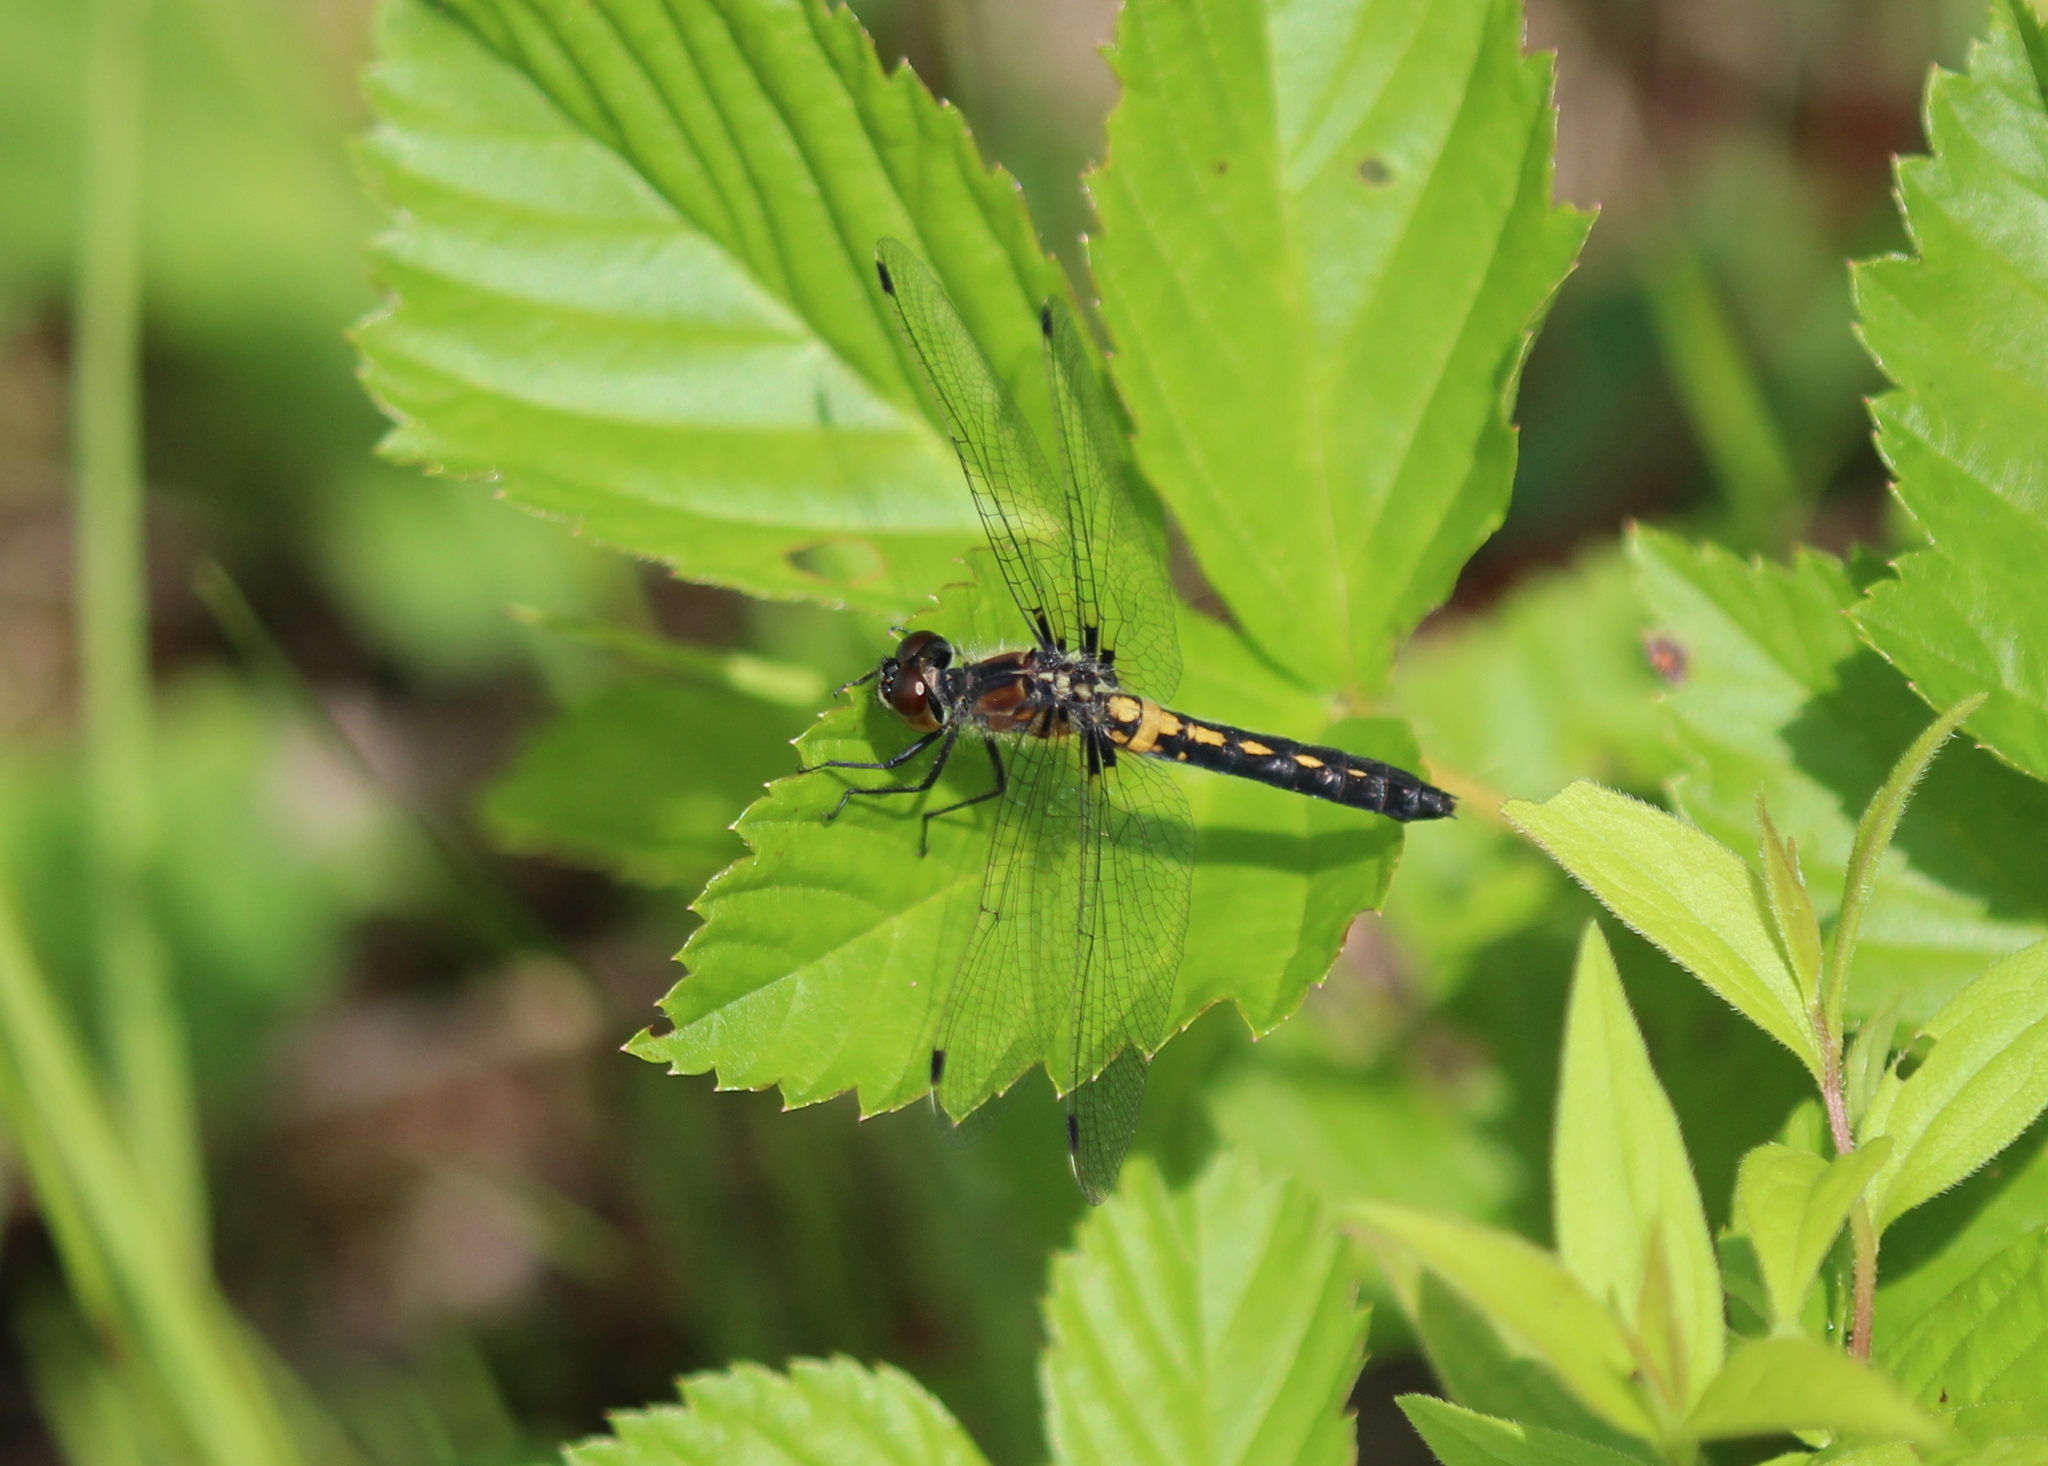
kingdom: Animalia
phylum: Arthropoda
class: Insecta
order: Odonata
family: Libellulidae
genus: Leucorrhinia
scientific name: Leucorrhinia frigida
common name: Frosted whiteface
